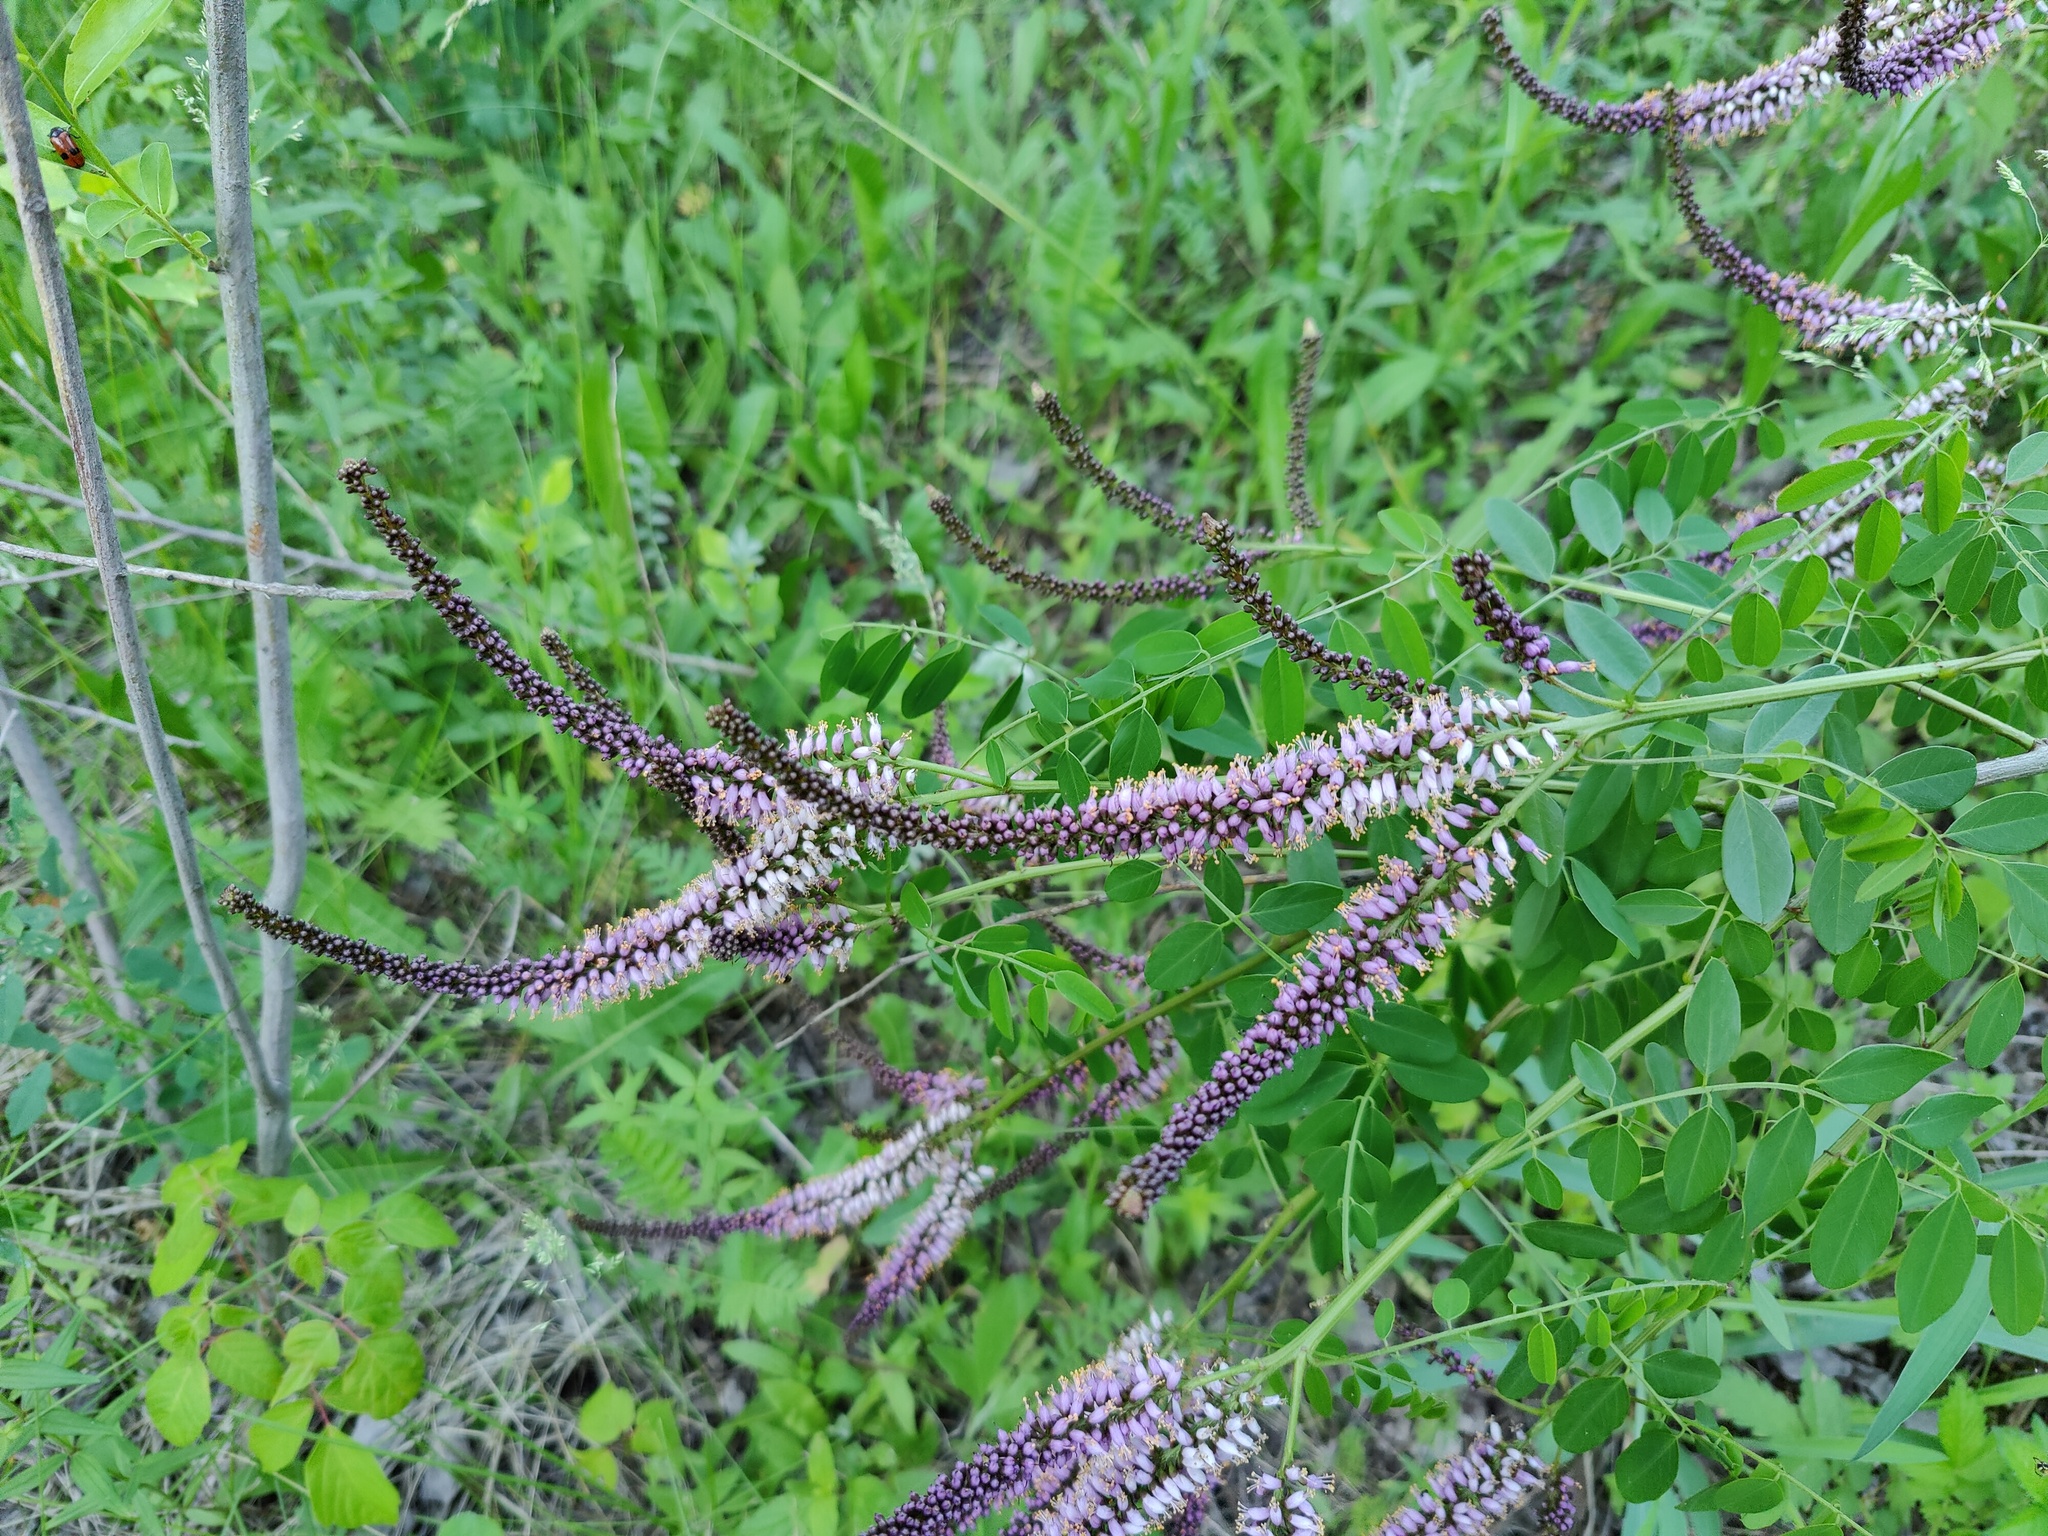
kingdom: Plantae
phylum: Tracheophyta
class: Magnoliopsida
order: Fabales
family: Fabaceae
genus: Amorpha
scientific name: Amorpha fruticosa
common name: False indigo
